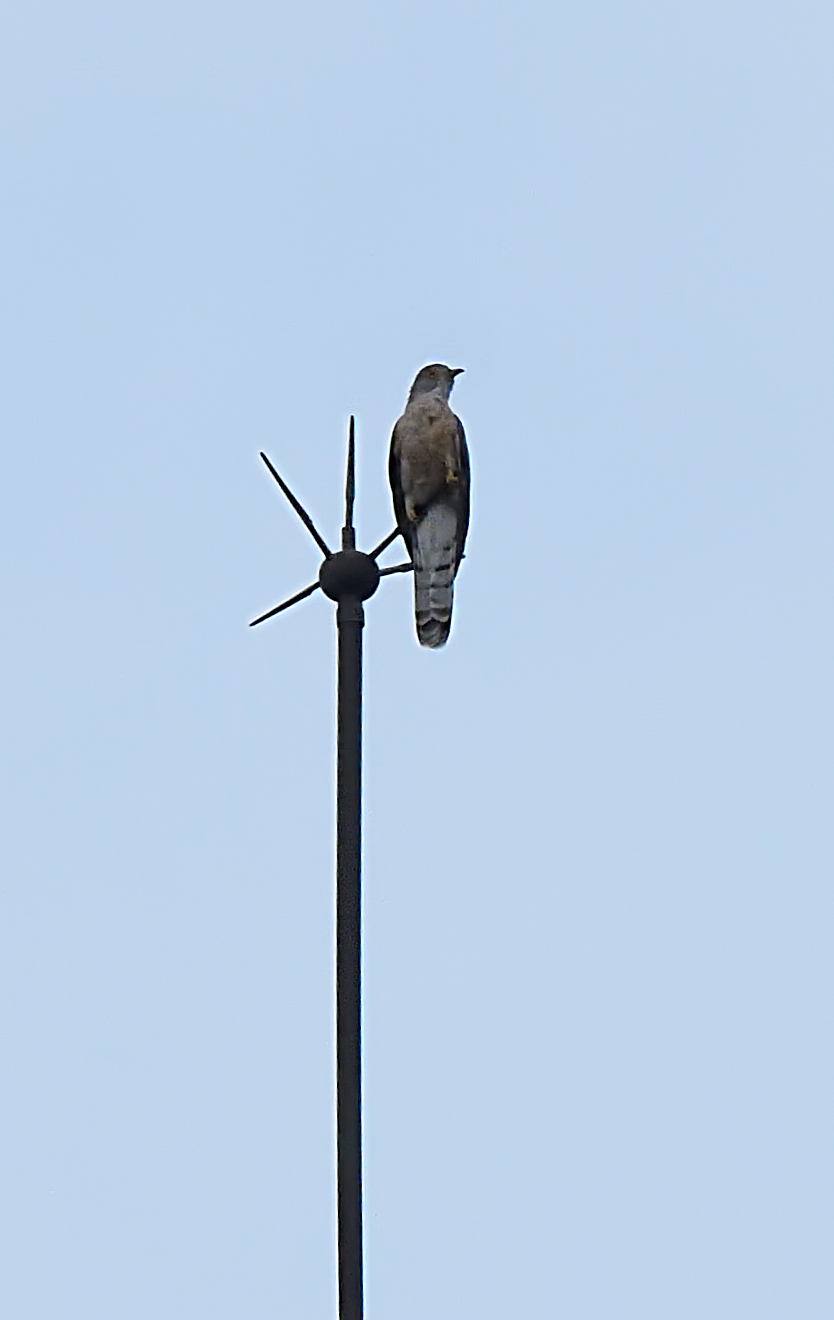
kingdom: Animalia
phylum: Chordata
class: Aves
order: Cuculiformes
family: Cuculidae
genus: Cuculus
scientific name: Cuculus varius
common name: Common hawk cuckoo
